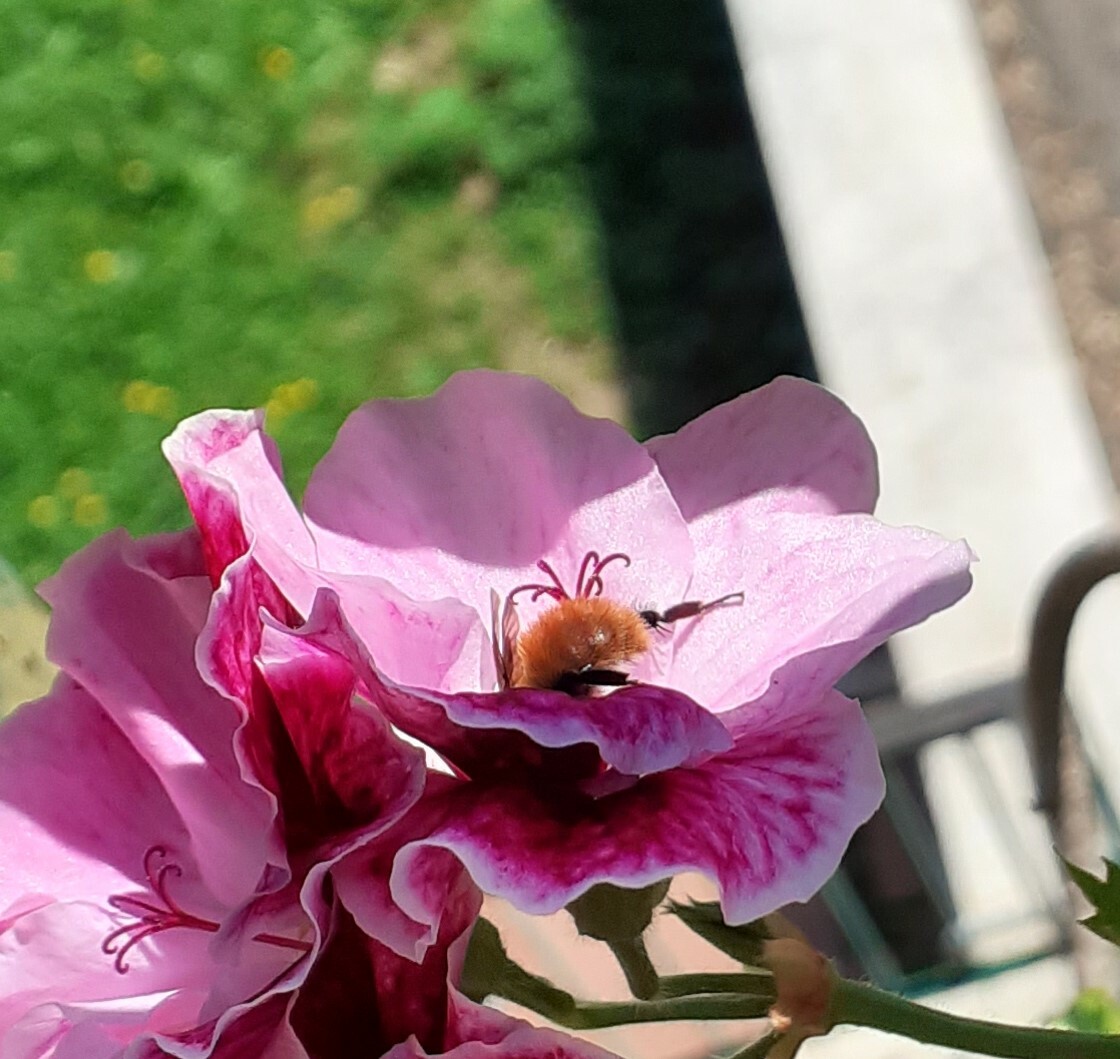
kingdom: Animalia
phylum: Arthropoda
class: Insecta
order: Hymenoptera
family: Apidae
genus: Bombus
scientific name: Bombus pascuorum
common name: Common carder bee
